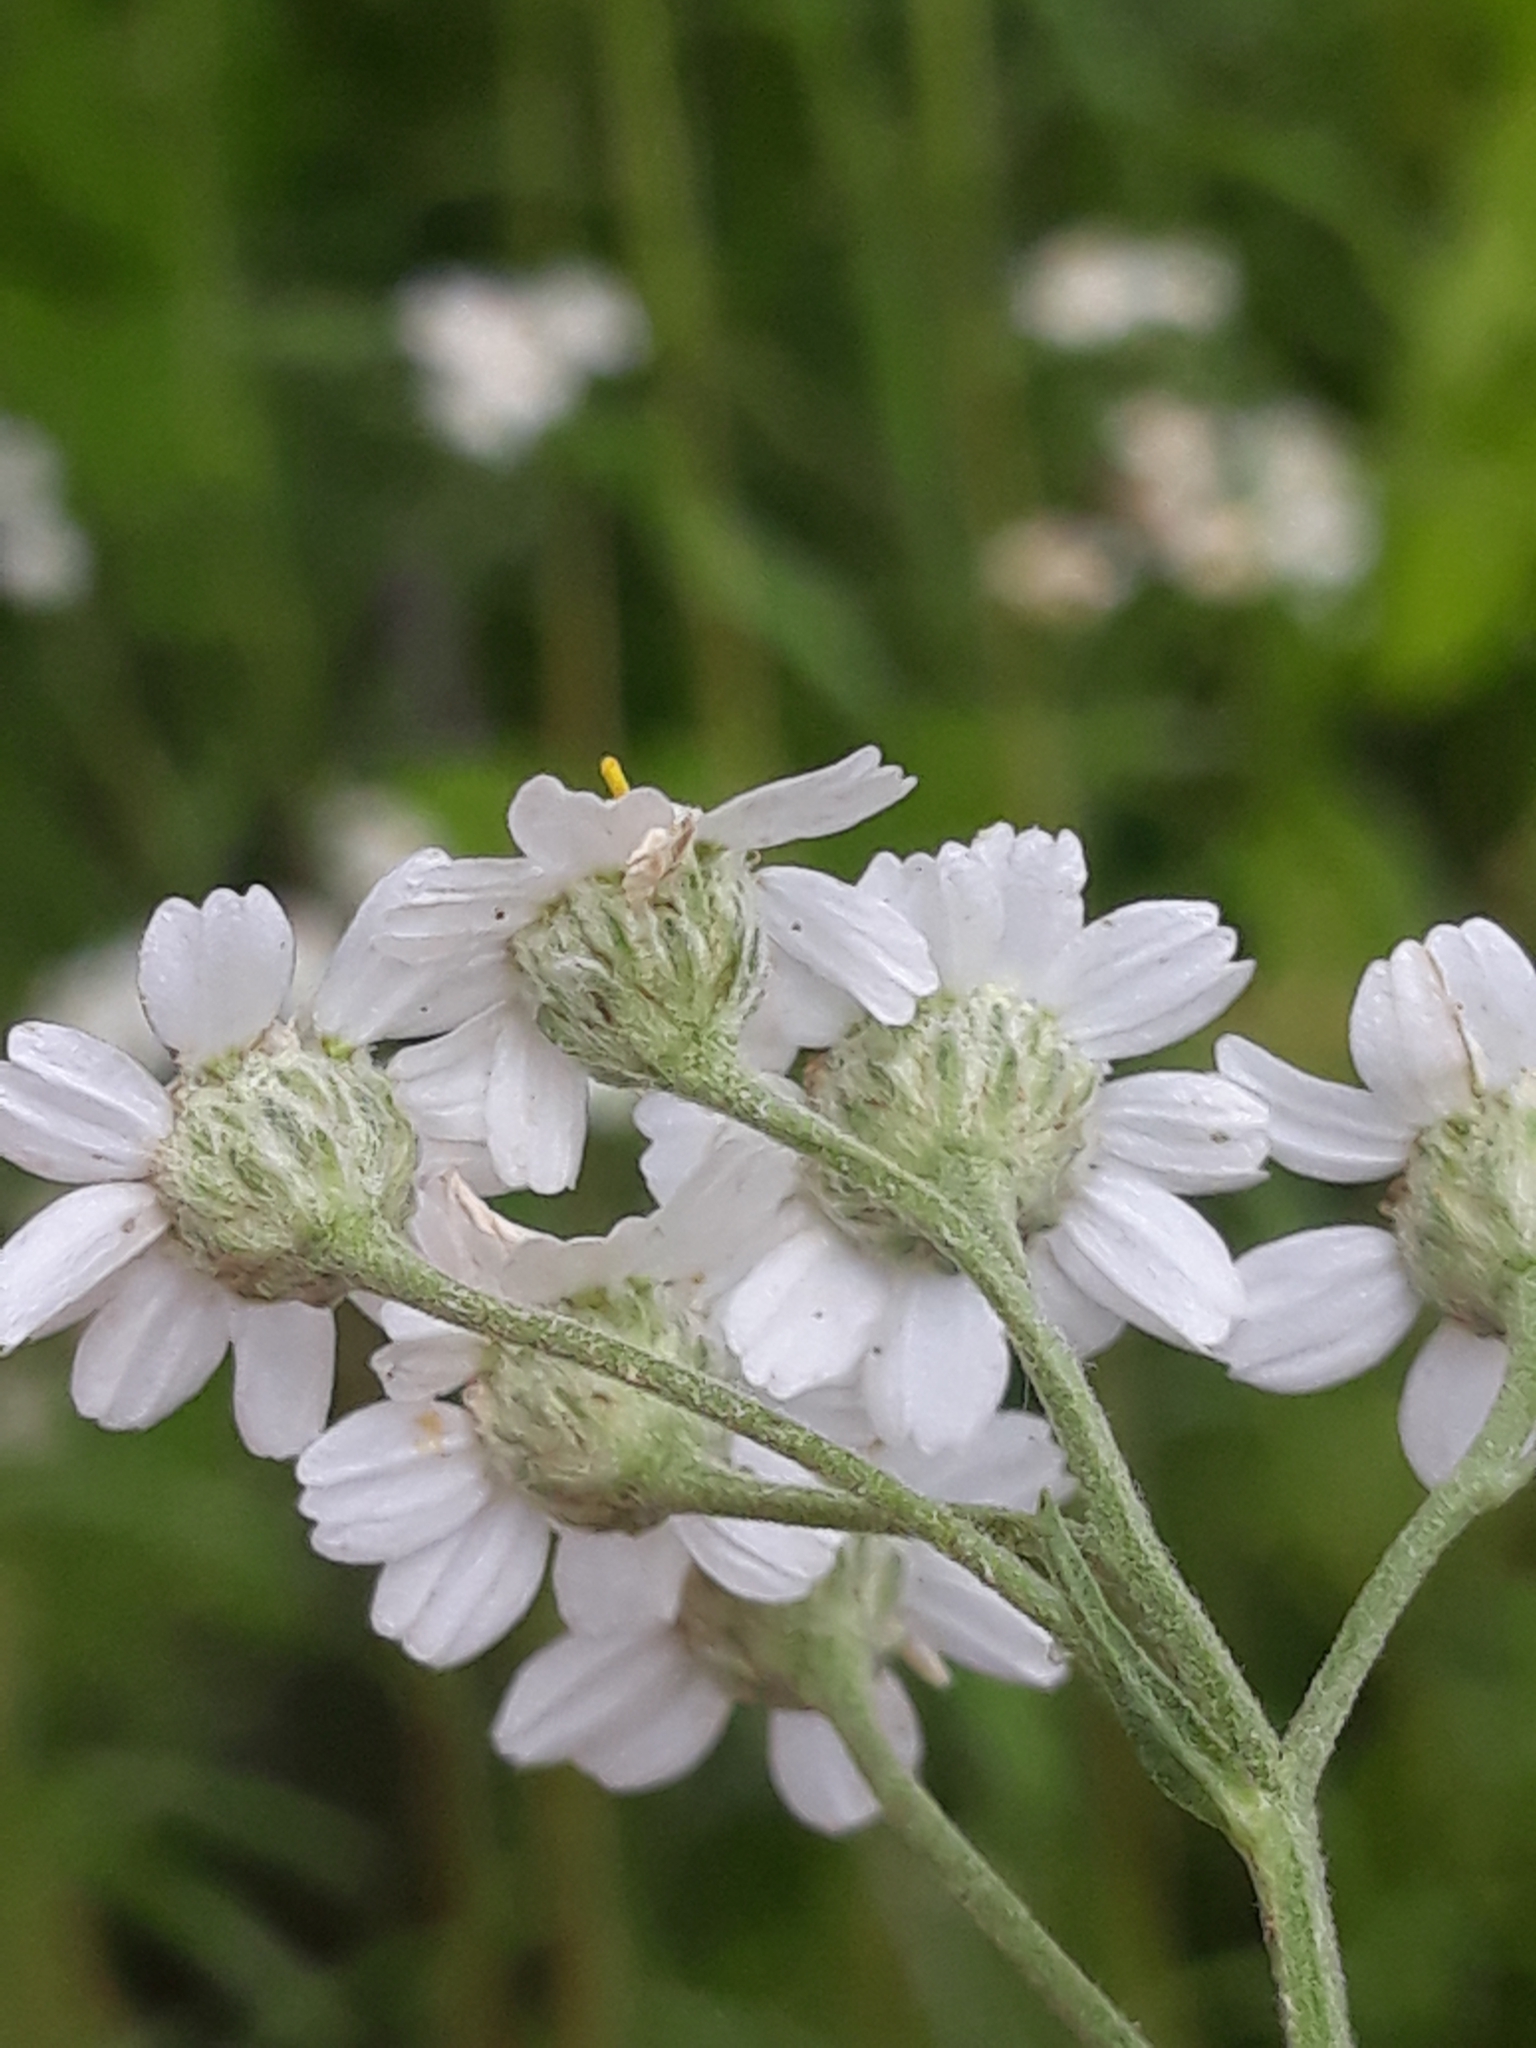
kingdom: Plantae
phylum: Tracheophyta
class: Magnoliopsida
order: Asterales
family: Asteraceae
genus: Achillea
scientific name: Achillea ptarmica
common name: Sneezeweed
